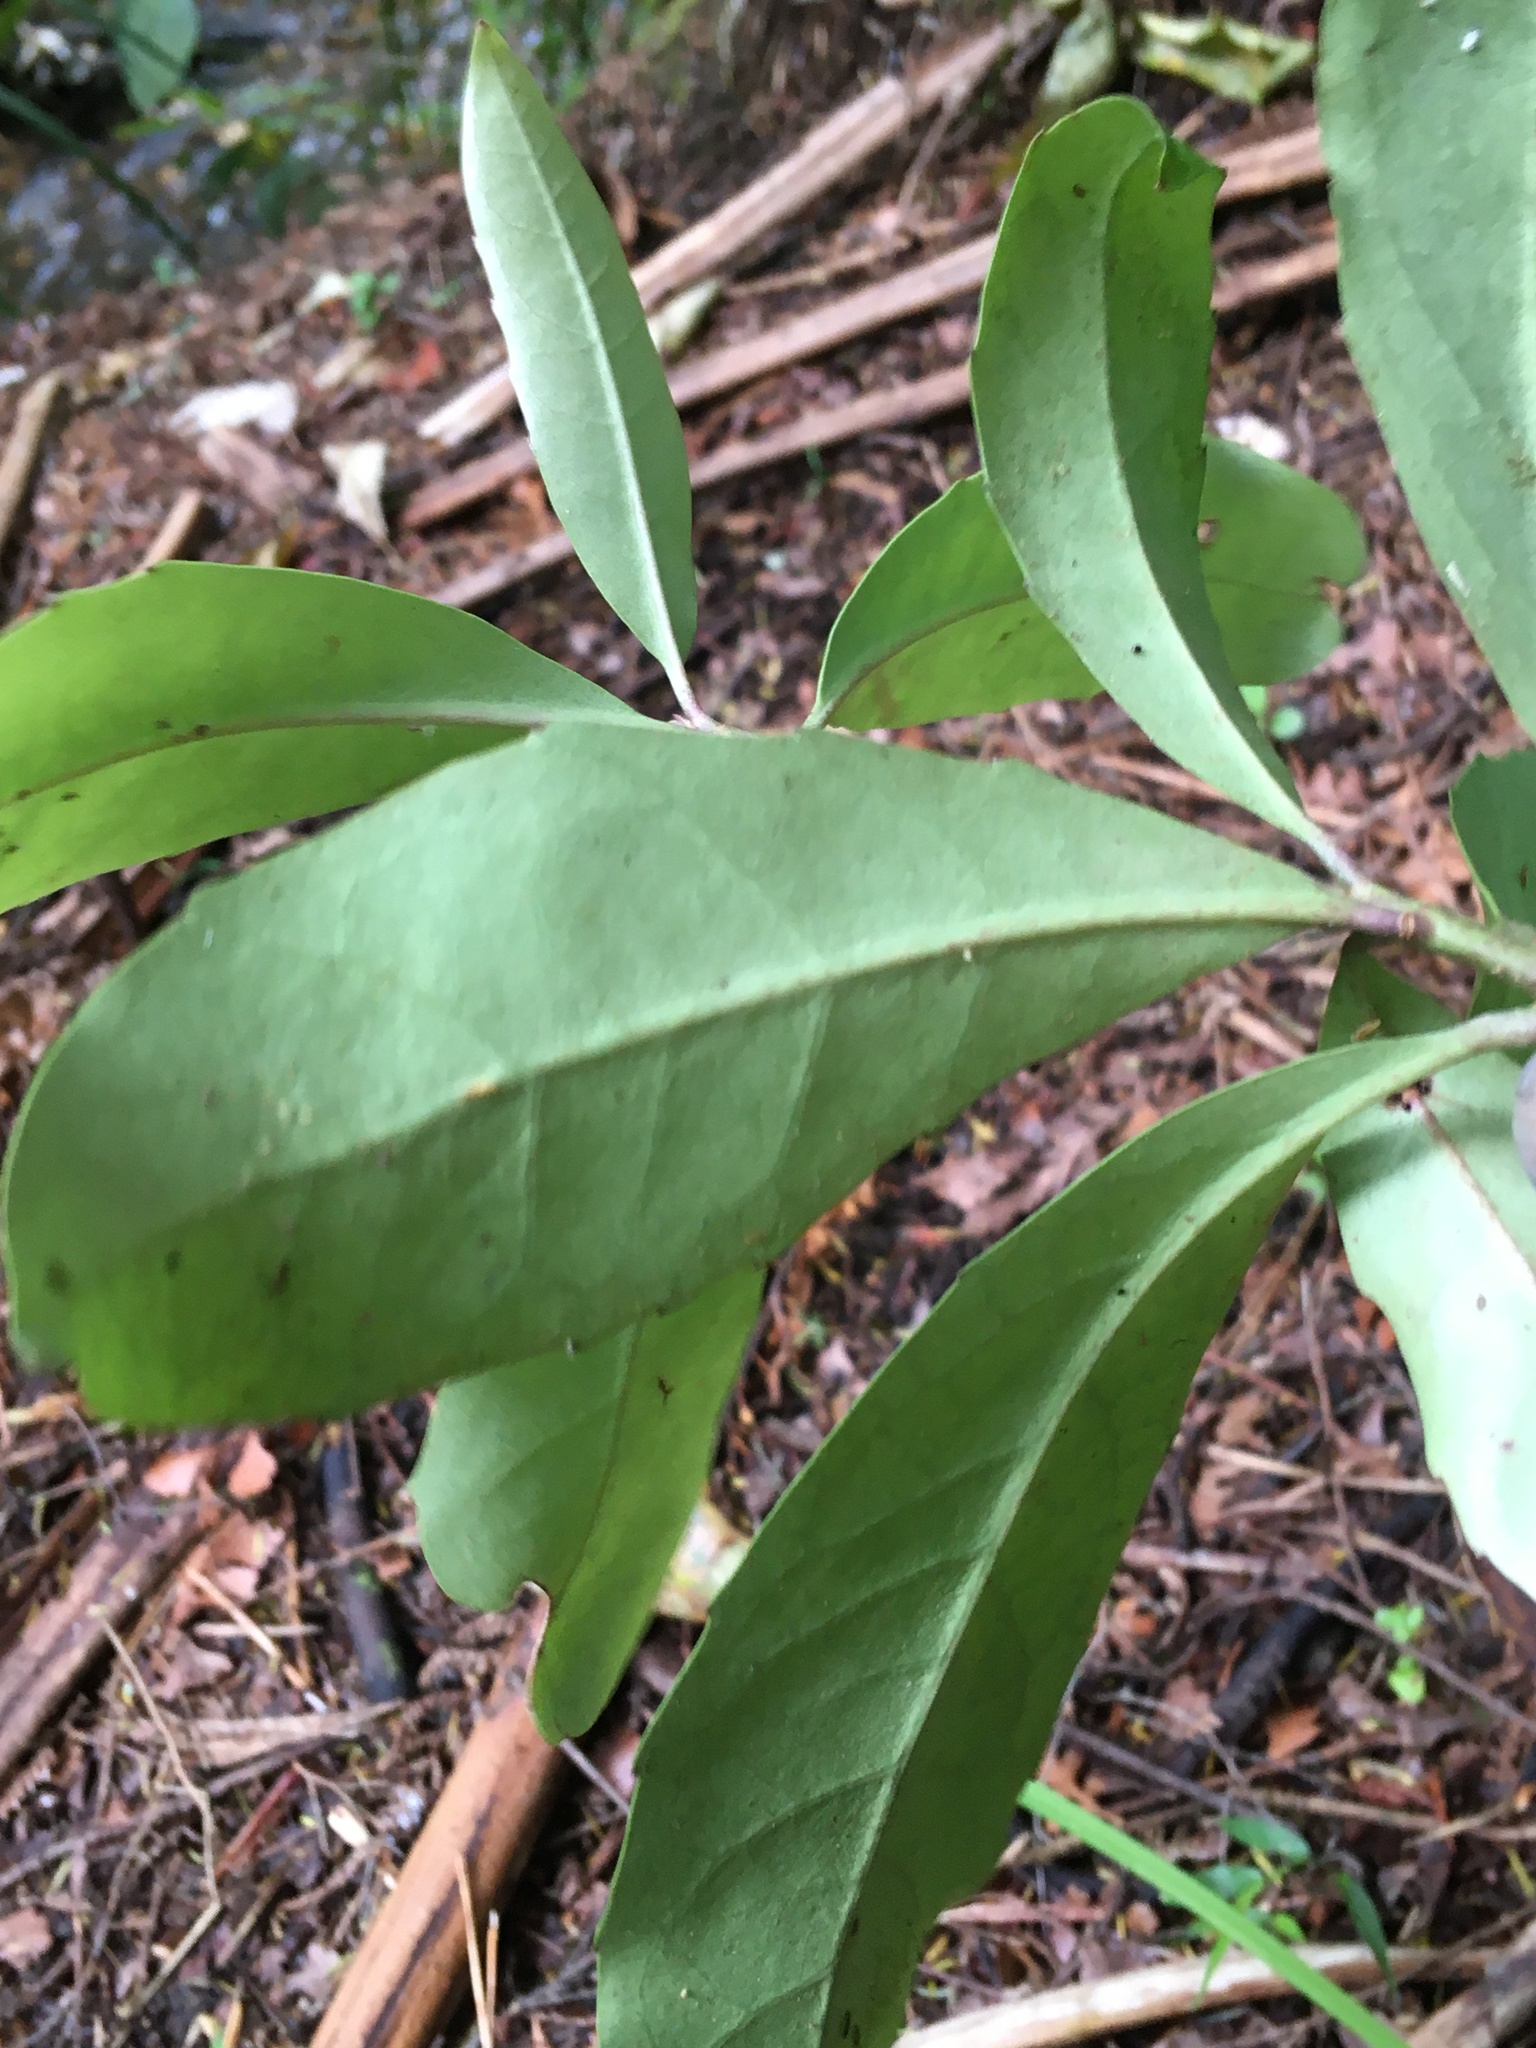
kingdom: Plantae
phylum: Tracheophyta
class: Magnoliopsida
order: Asterales
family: Alseuosmiaceae
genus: Alseuosmia
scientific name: Alseuosmia macrophylla
